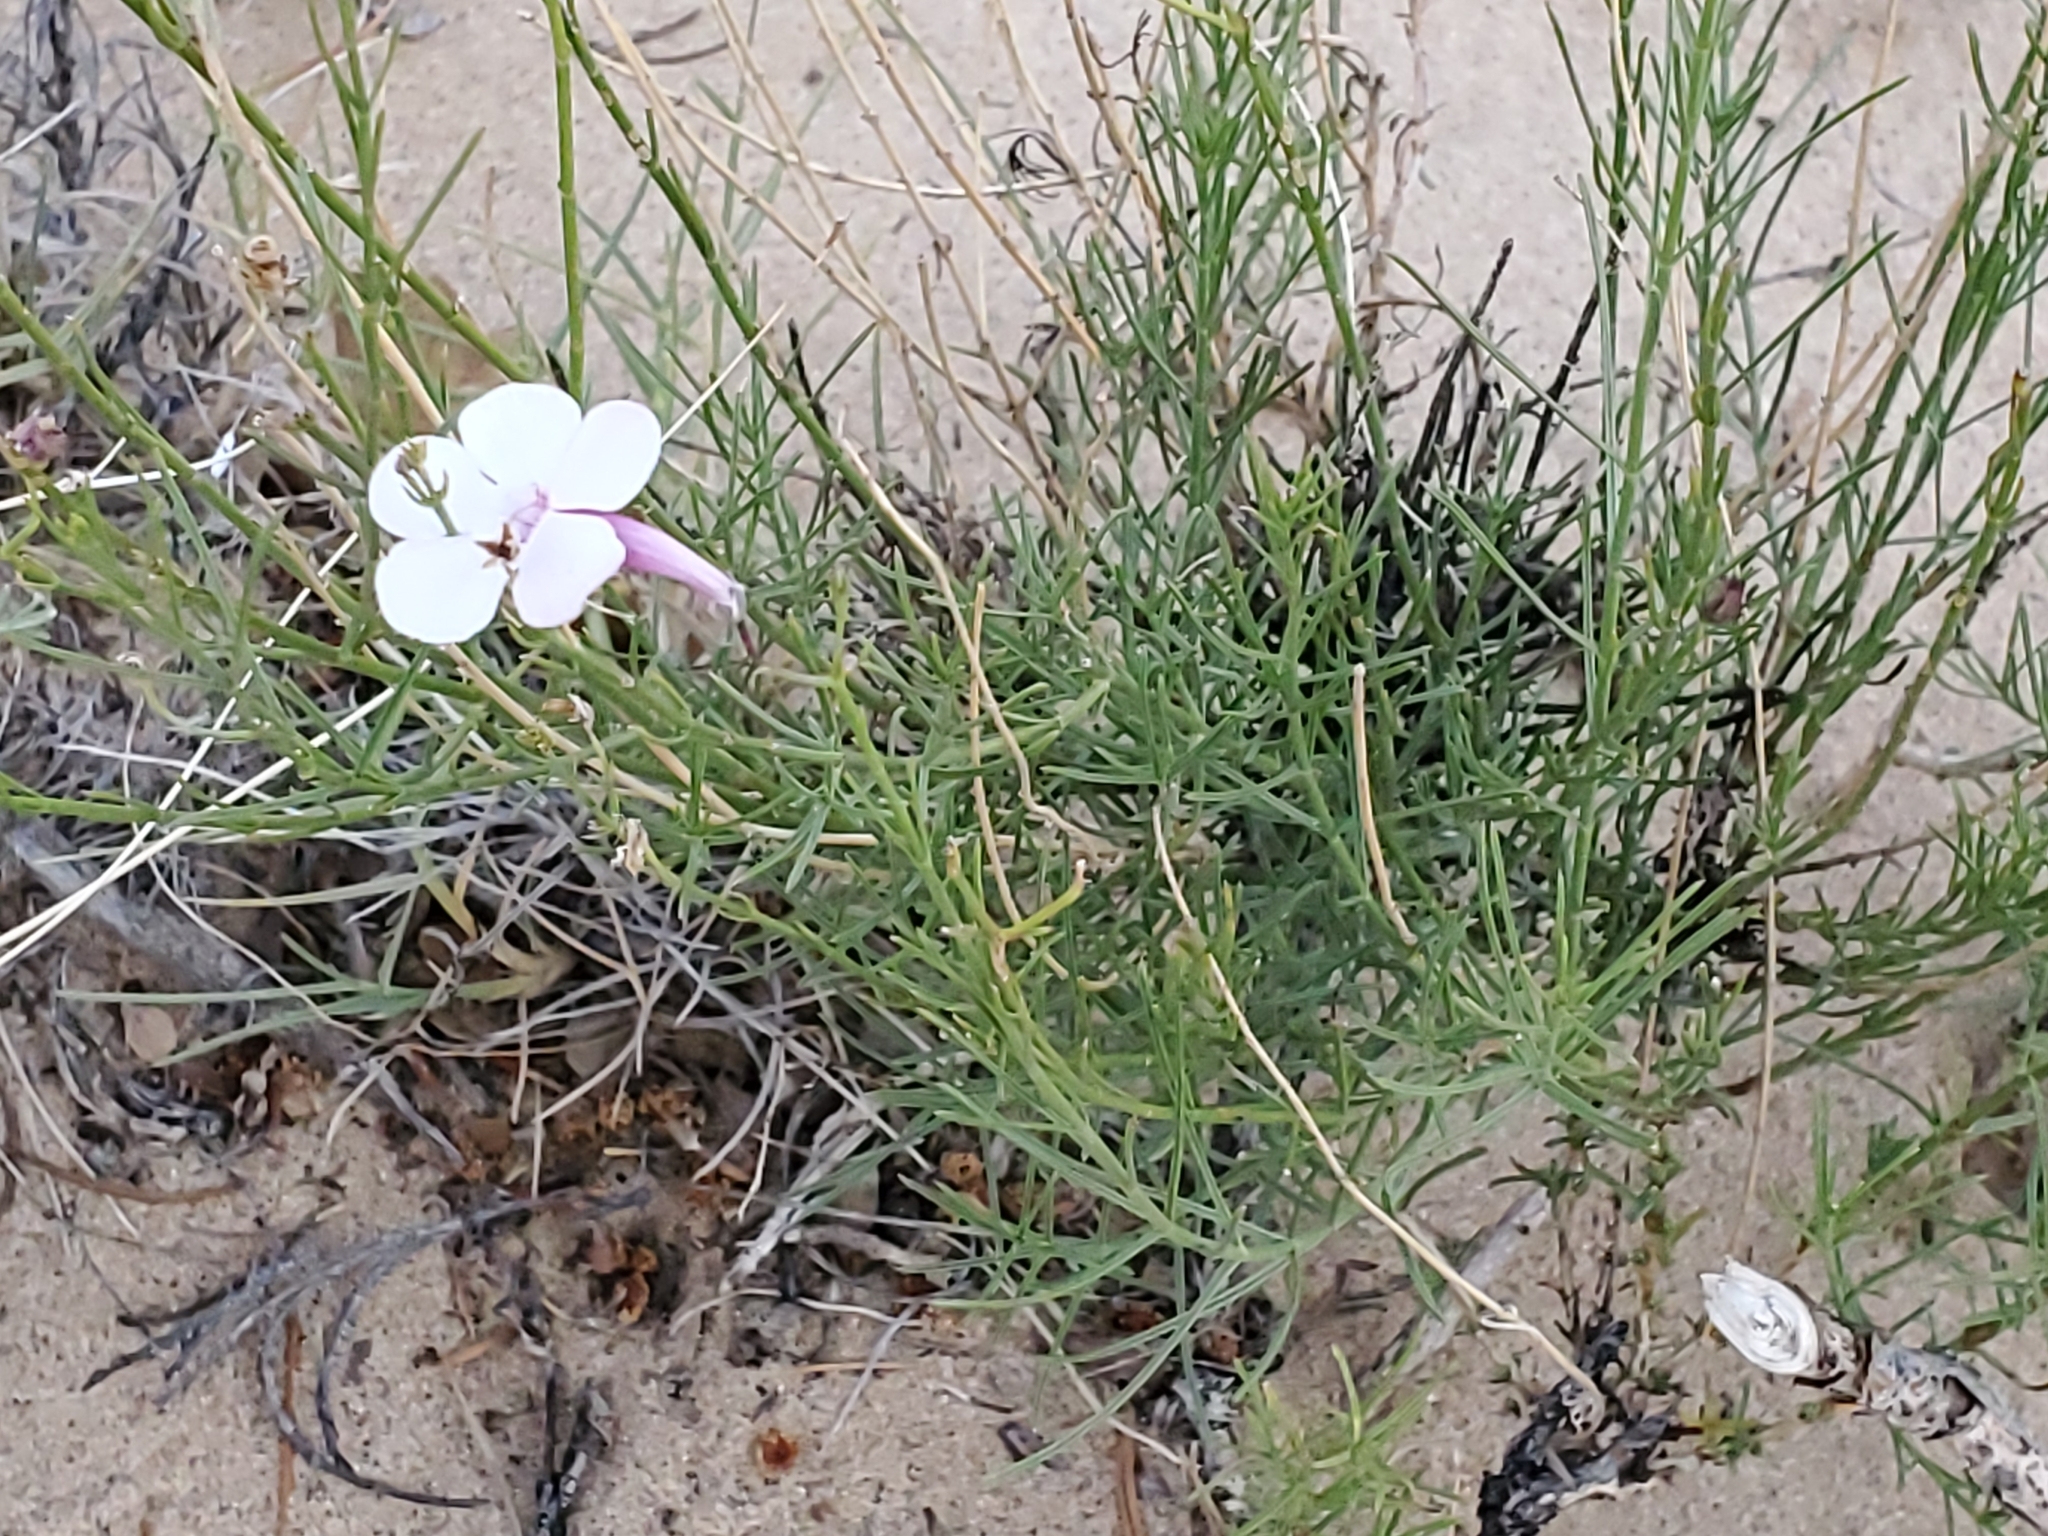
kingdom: Plantae
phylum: Tracheophyta
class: Magnoliopsida
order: Lamiales
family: Plantaginaceae
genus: Penstemon
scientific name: Penstemon ambiguus
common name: Bush penstemon
